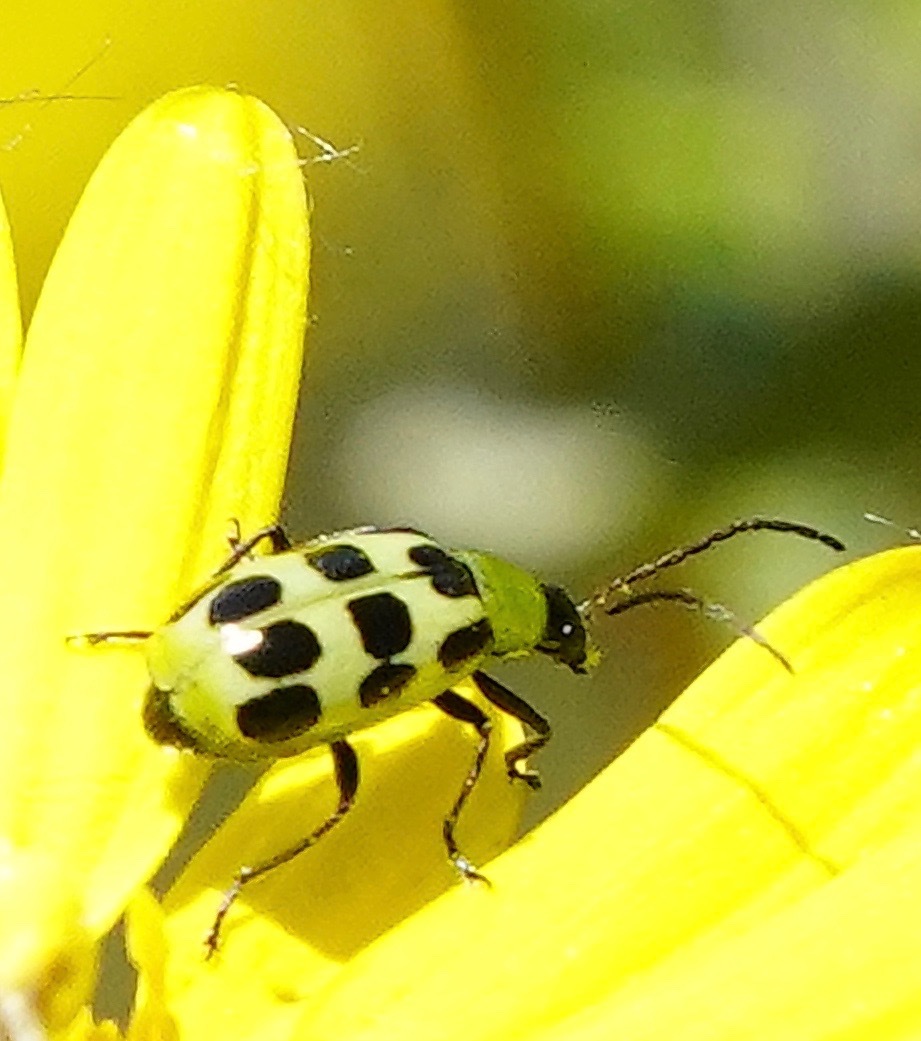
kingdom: Animalia
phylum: Arthropoda
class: Insecta
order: Coleoptera
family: Chrysomelidae
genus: Diabrotica
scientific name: Diabrotica undecimpunctata
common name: Spotted cucumber beetle
